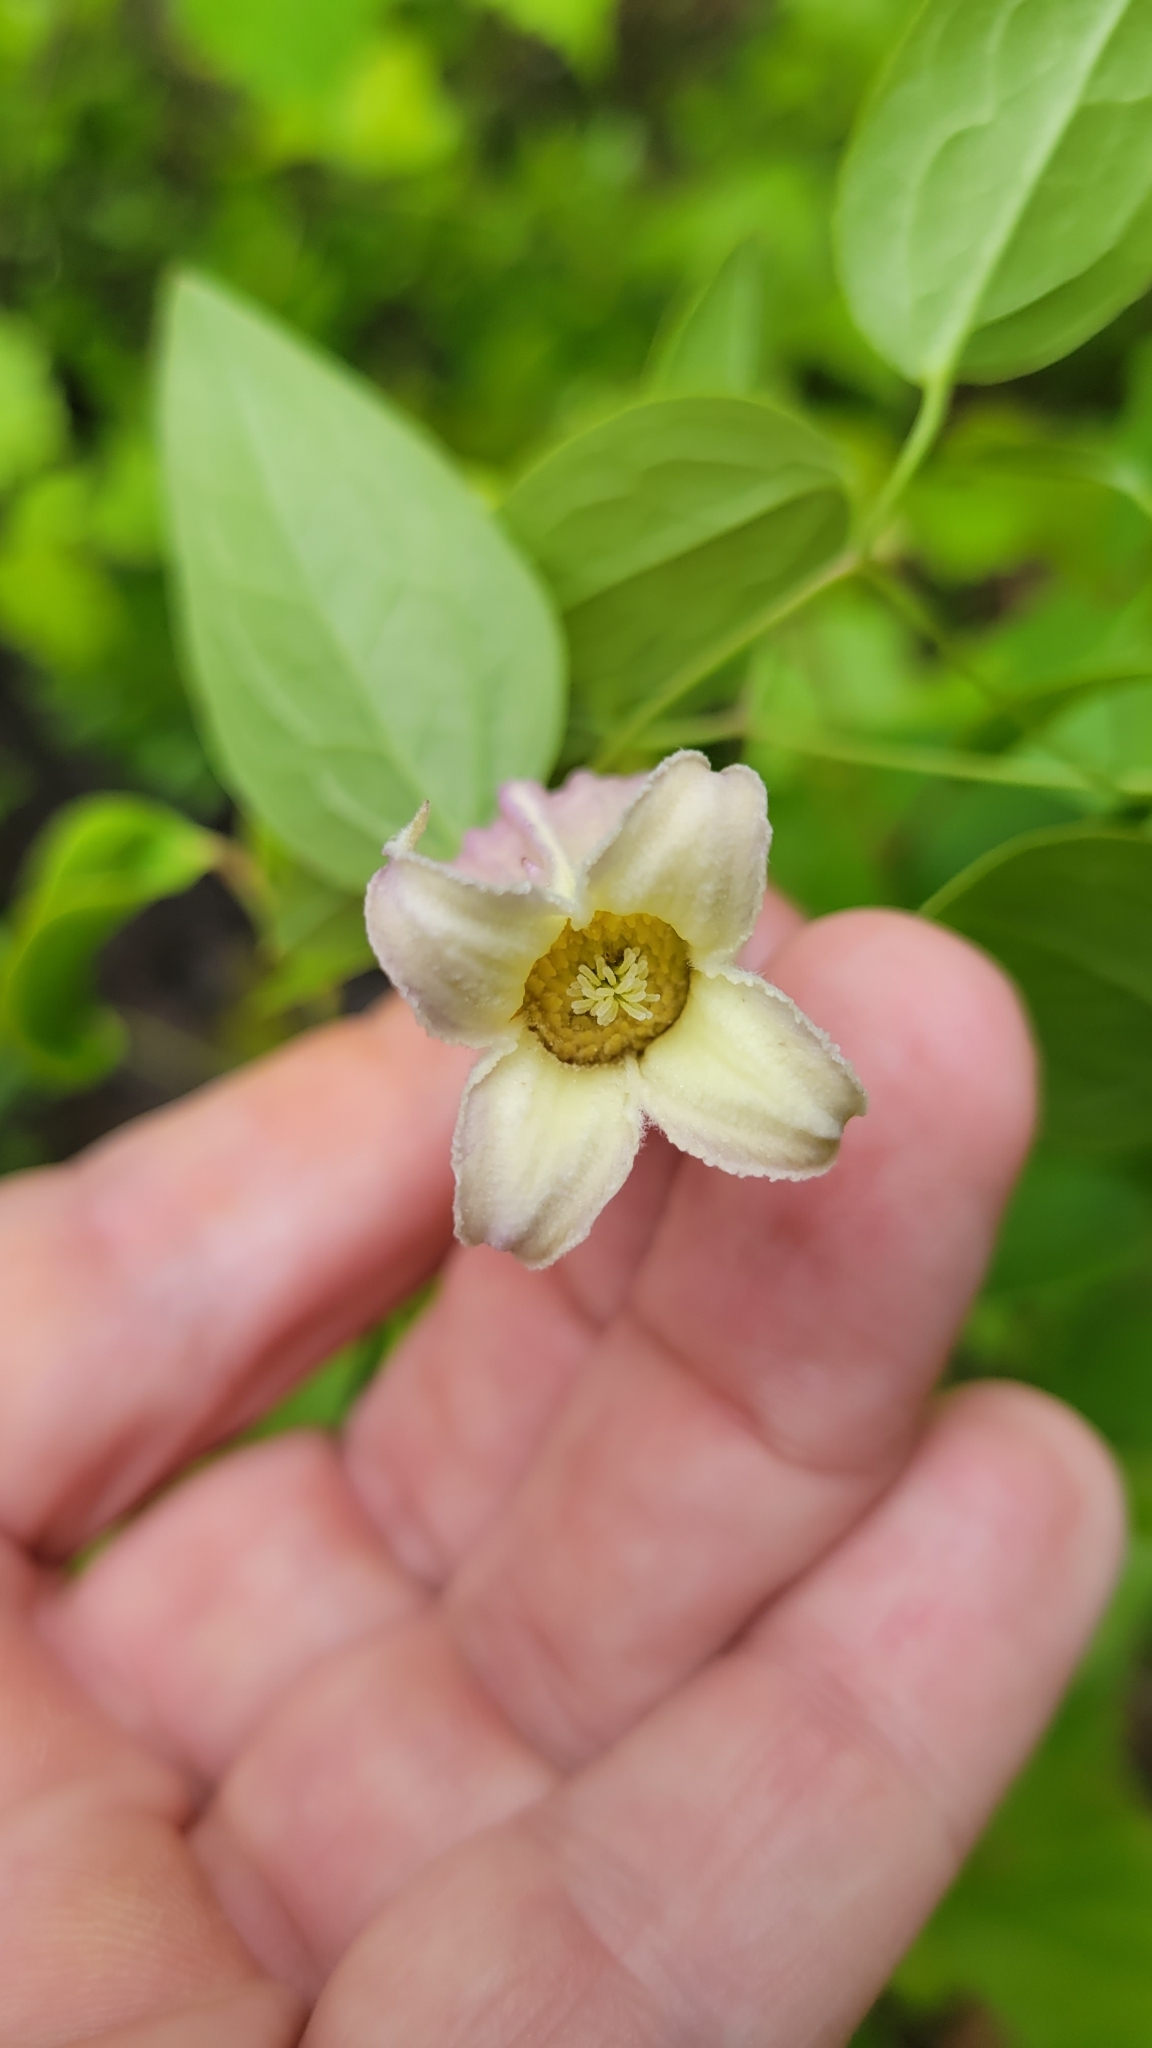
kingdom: Plantae
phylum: Tracheophyta
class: Magnoliopsida
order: Ranunculales
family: Ranunculaceae
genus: Clematis
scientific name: Clematis reticulata
